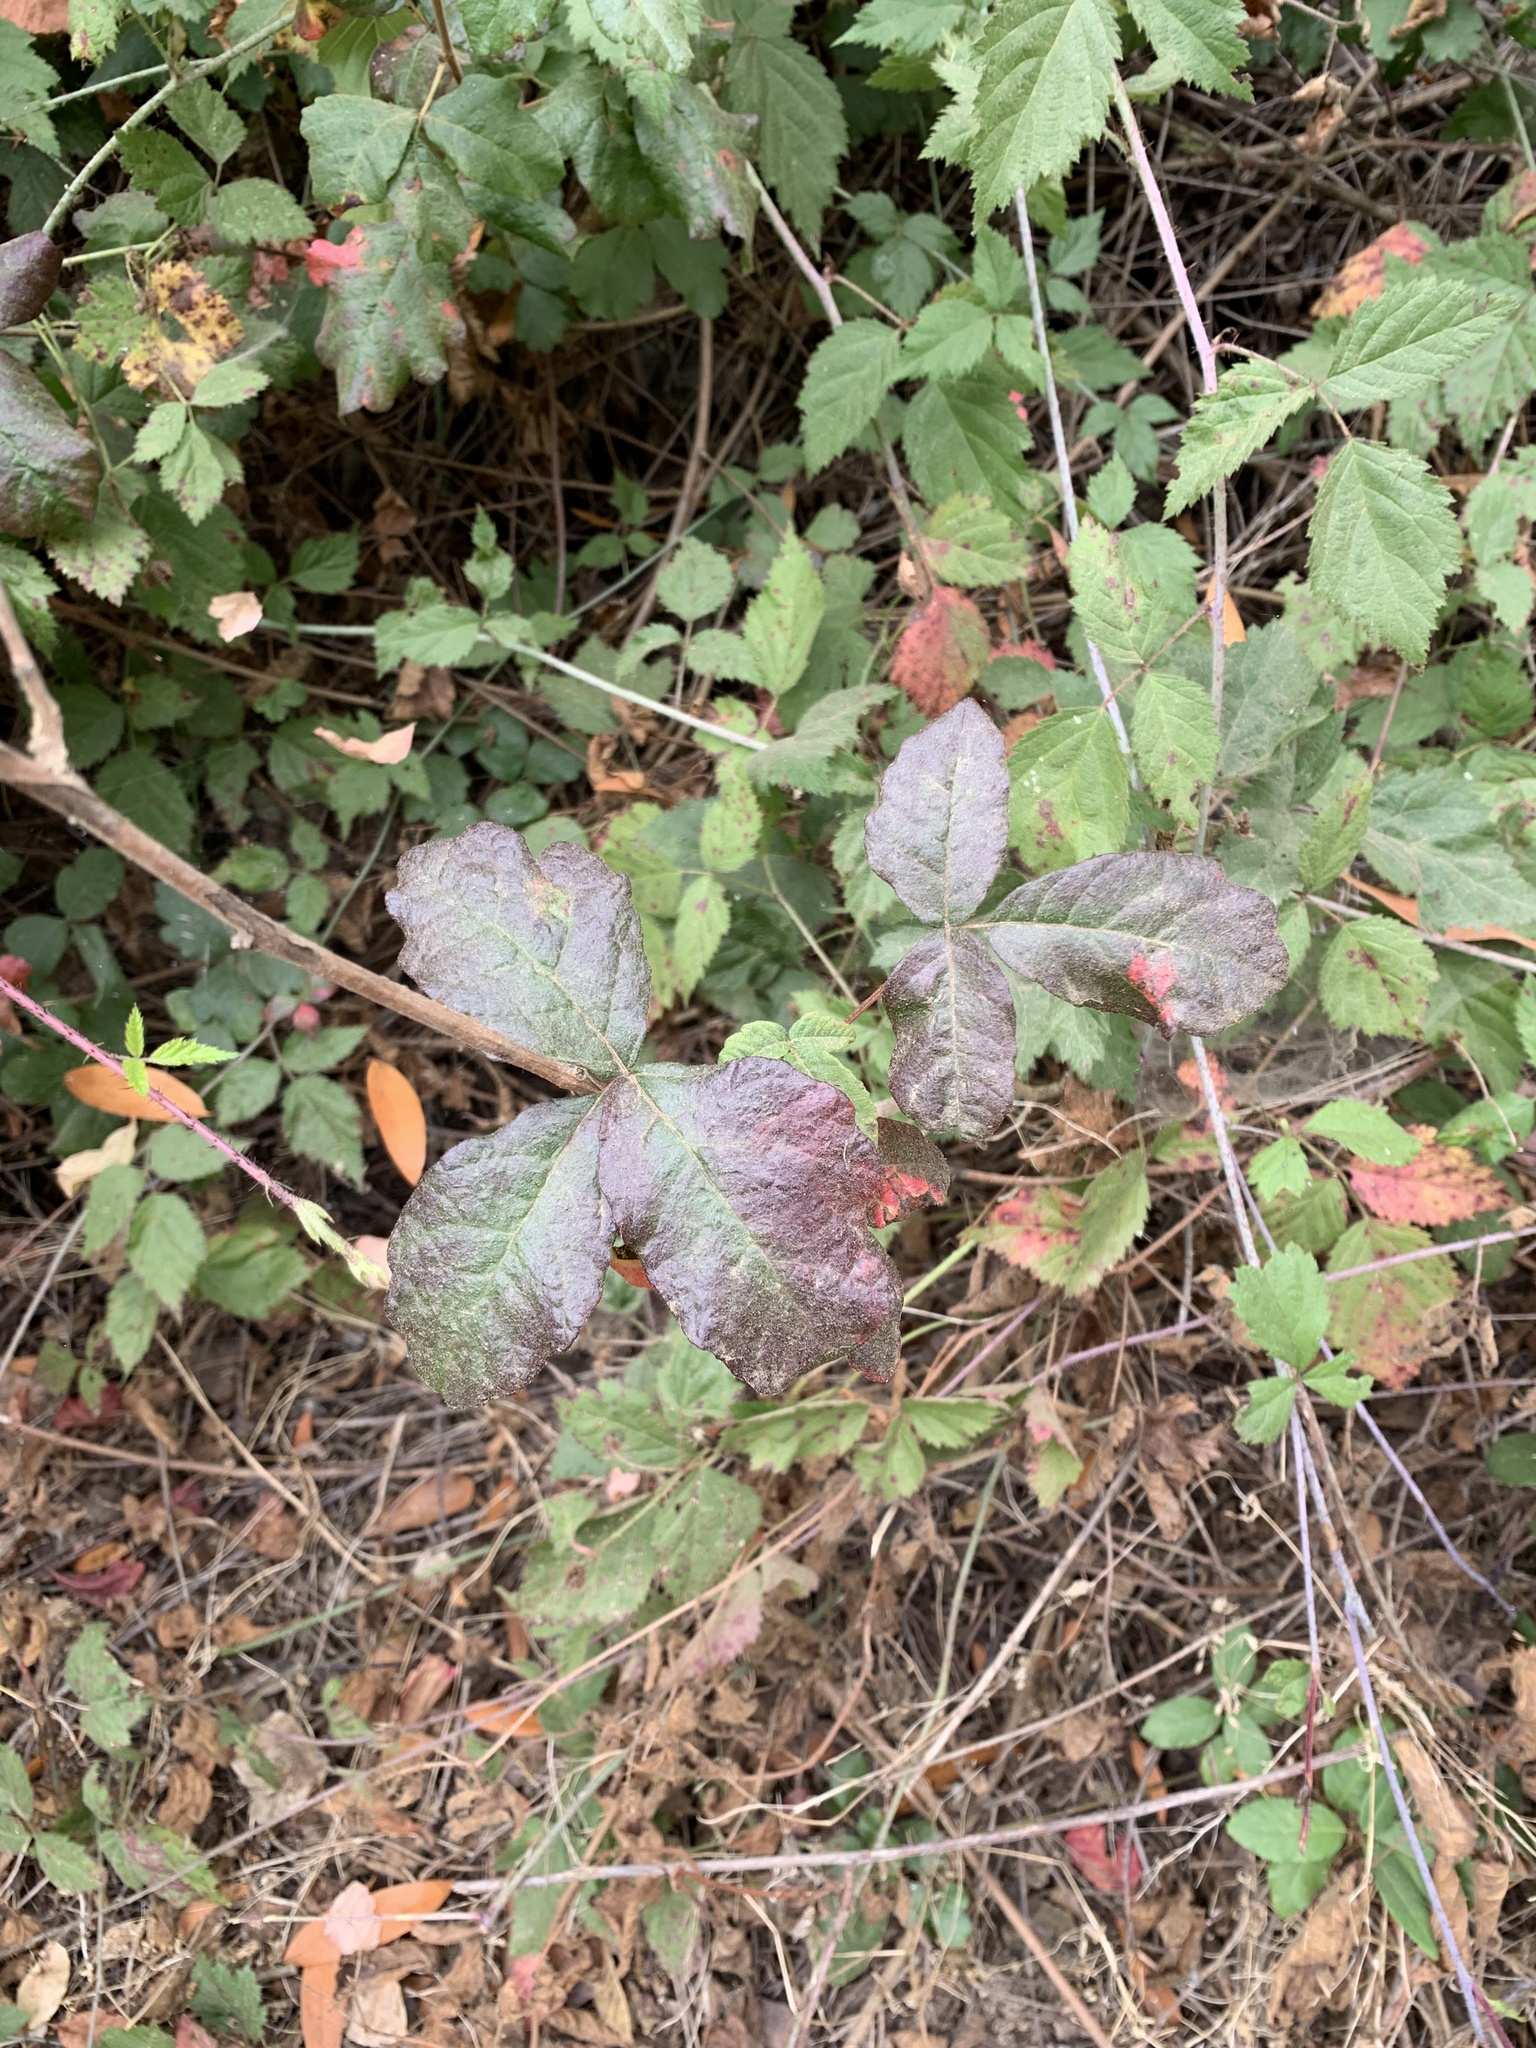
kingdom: Plantae
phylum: Tracheophyta
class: Magnoliopsida
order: Sapindales
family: Anacardiaceae
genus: Toxicodendron
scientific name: Toxicodendron diversilobum
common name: Pacific poison-oak
